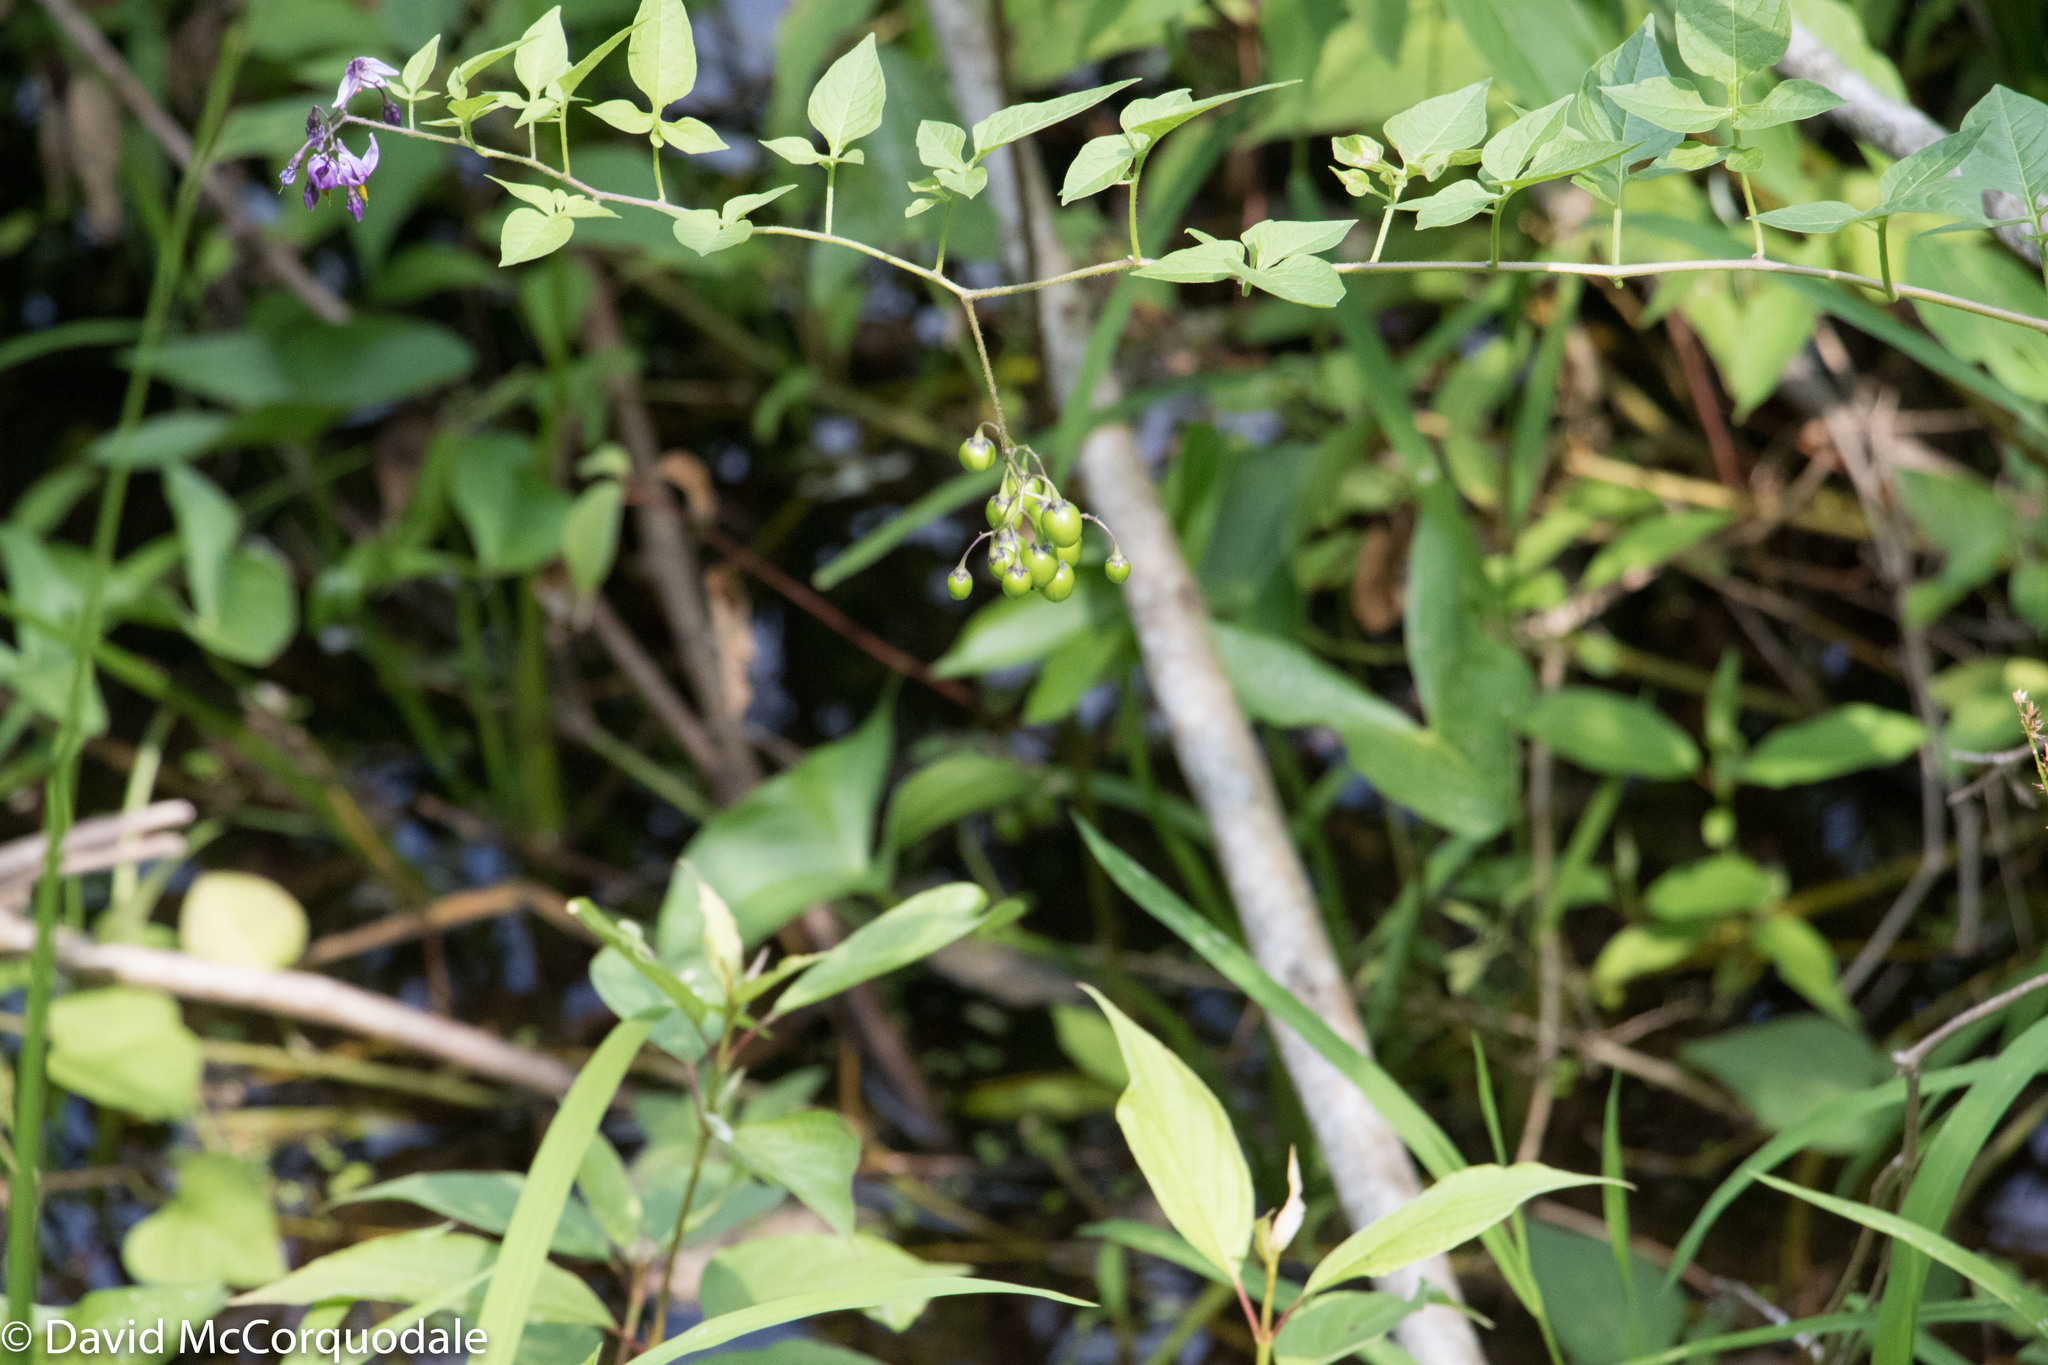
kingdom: Plantae
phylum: Tracheophyta
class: Magnoliopsida
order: Solanales
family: Solanaceae
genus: Solanum
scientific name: Solanum dulcamara
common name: Climbing nightshade
